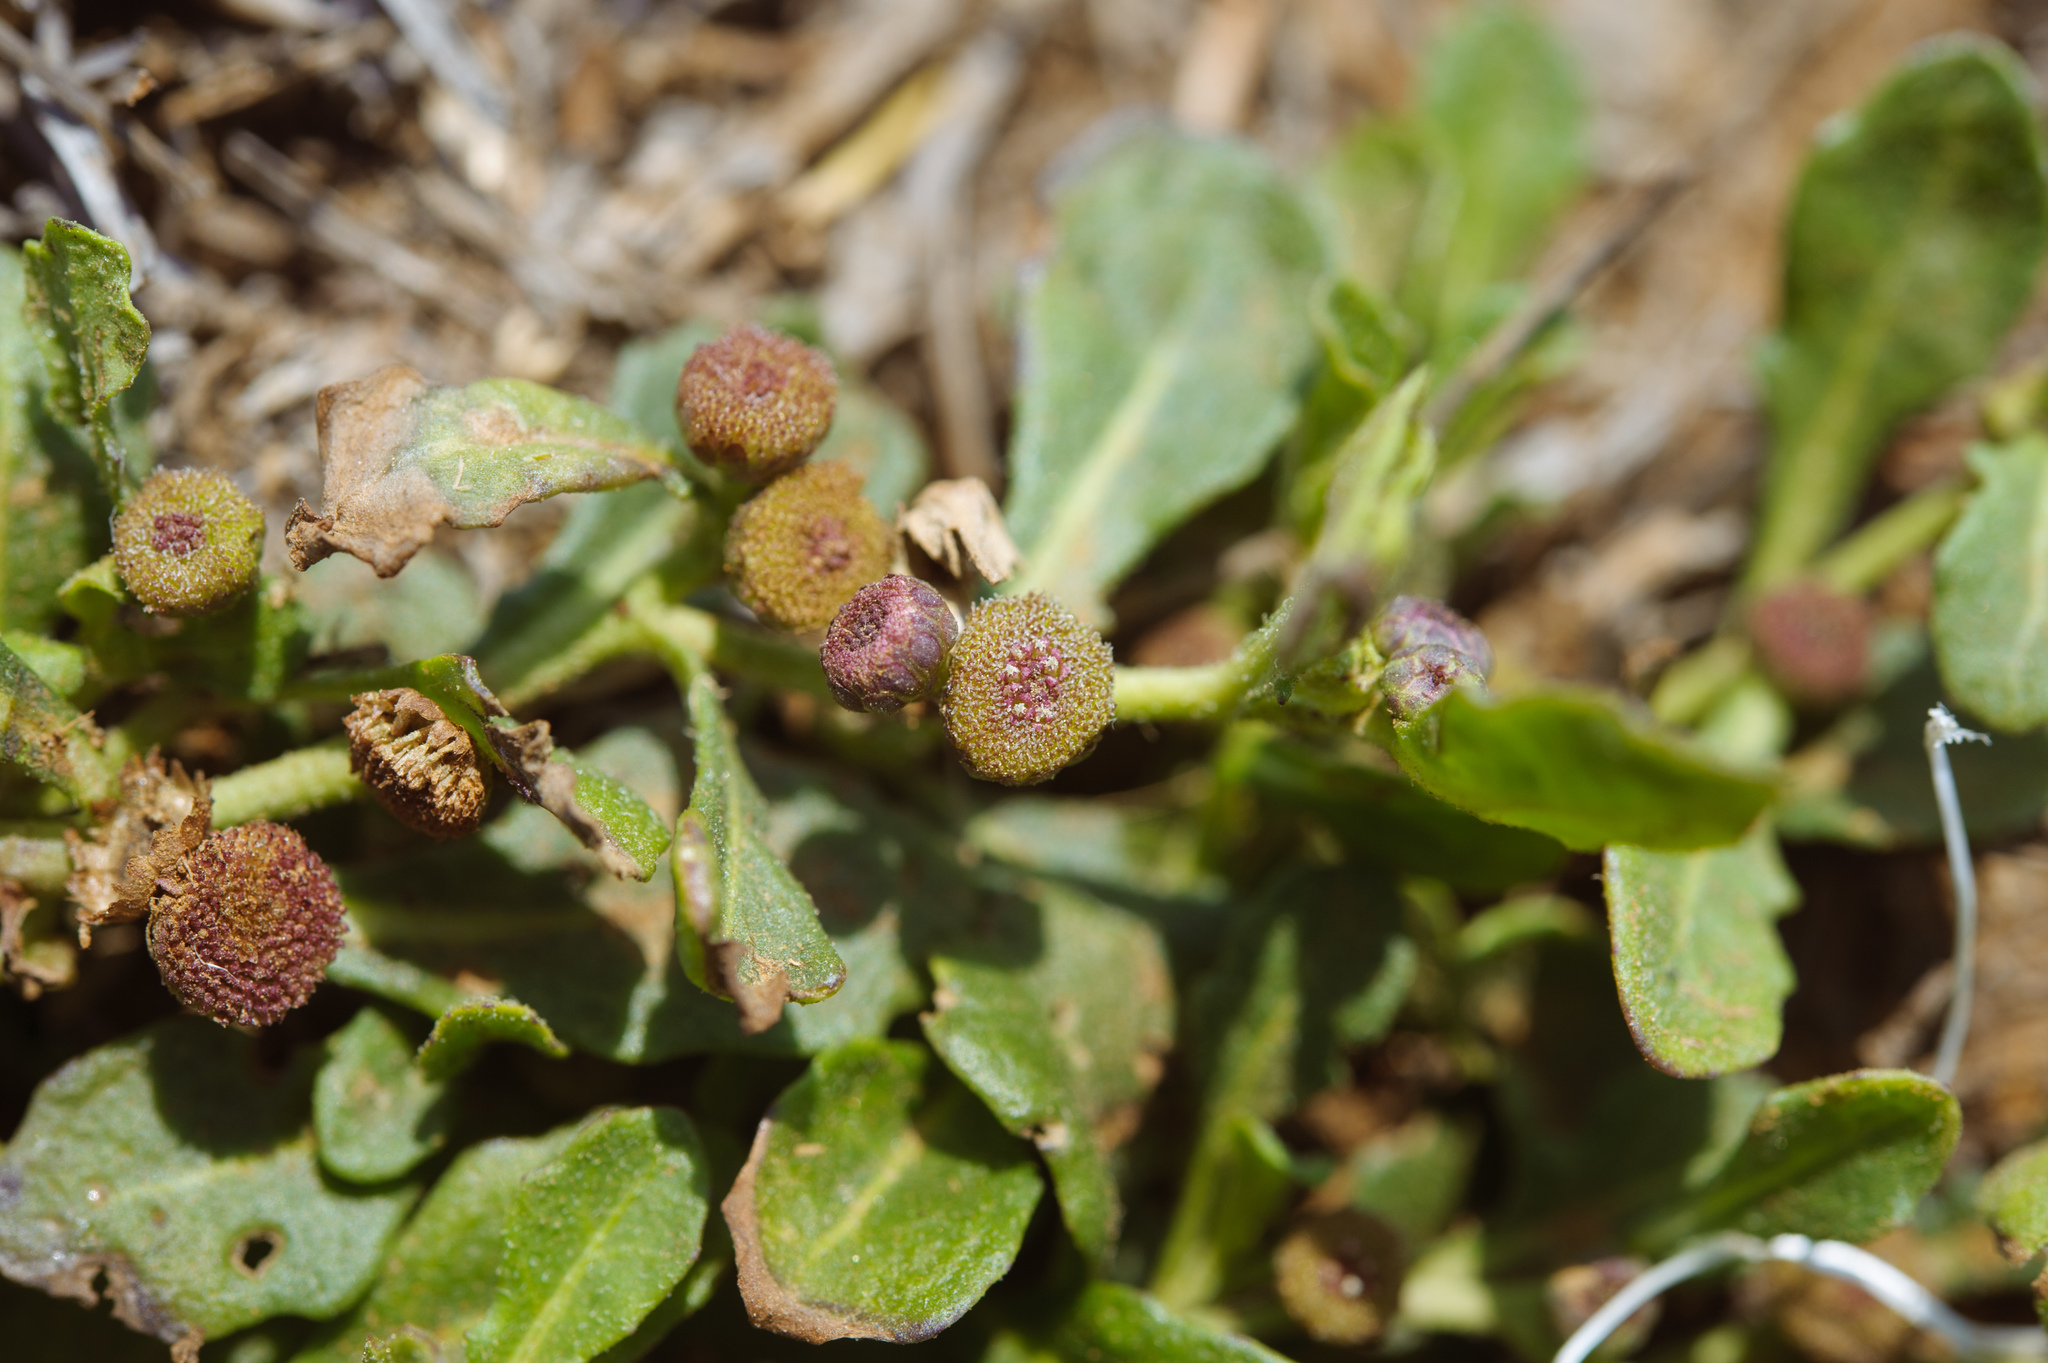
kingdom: Plantae
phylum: Tracheophyta
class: Magnoliopsida
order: Asterales
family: Asteraceae
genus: Sphaeromorphaea
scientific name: Sphaeromorphaea australis
